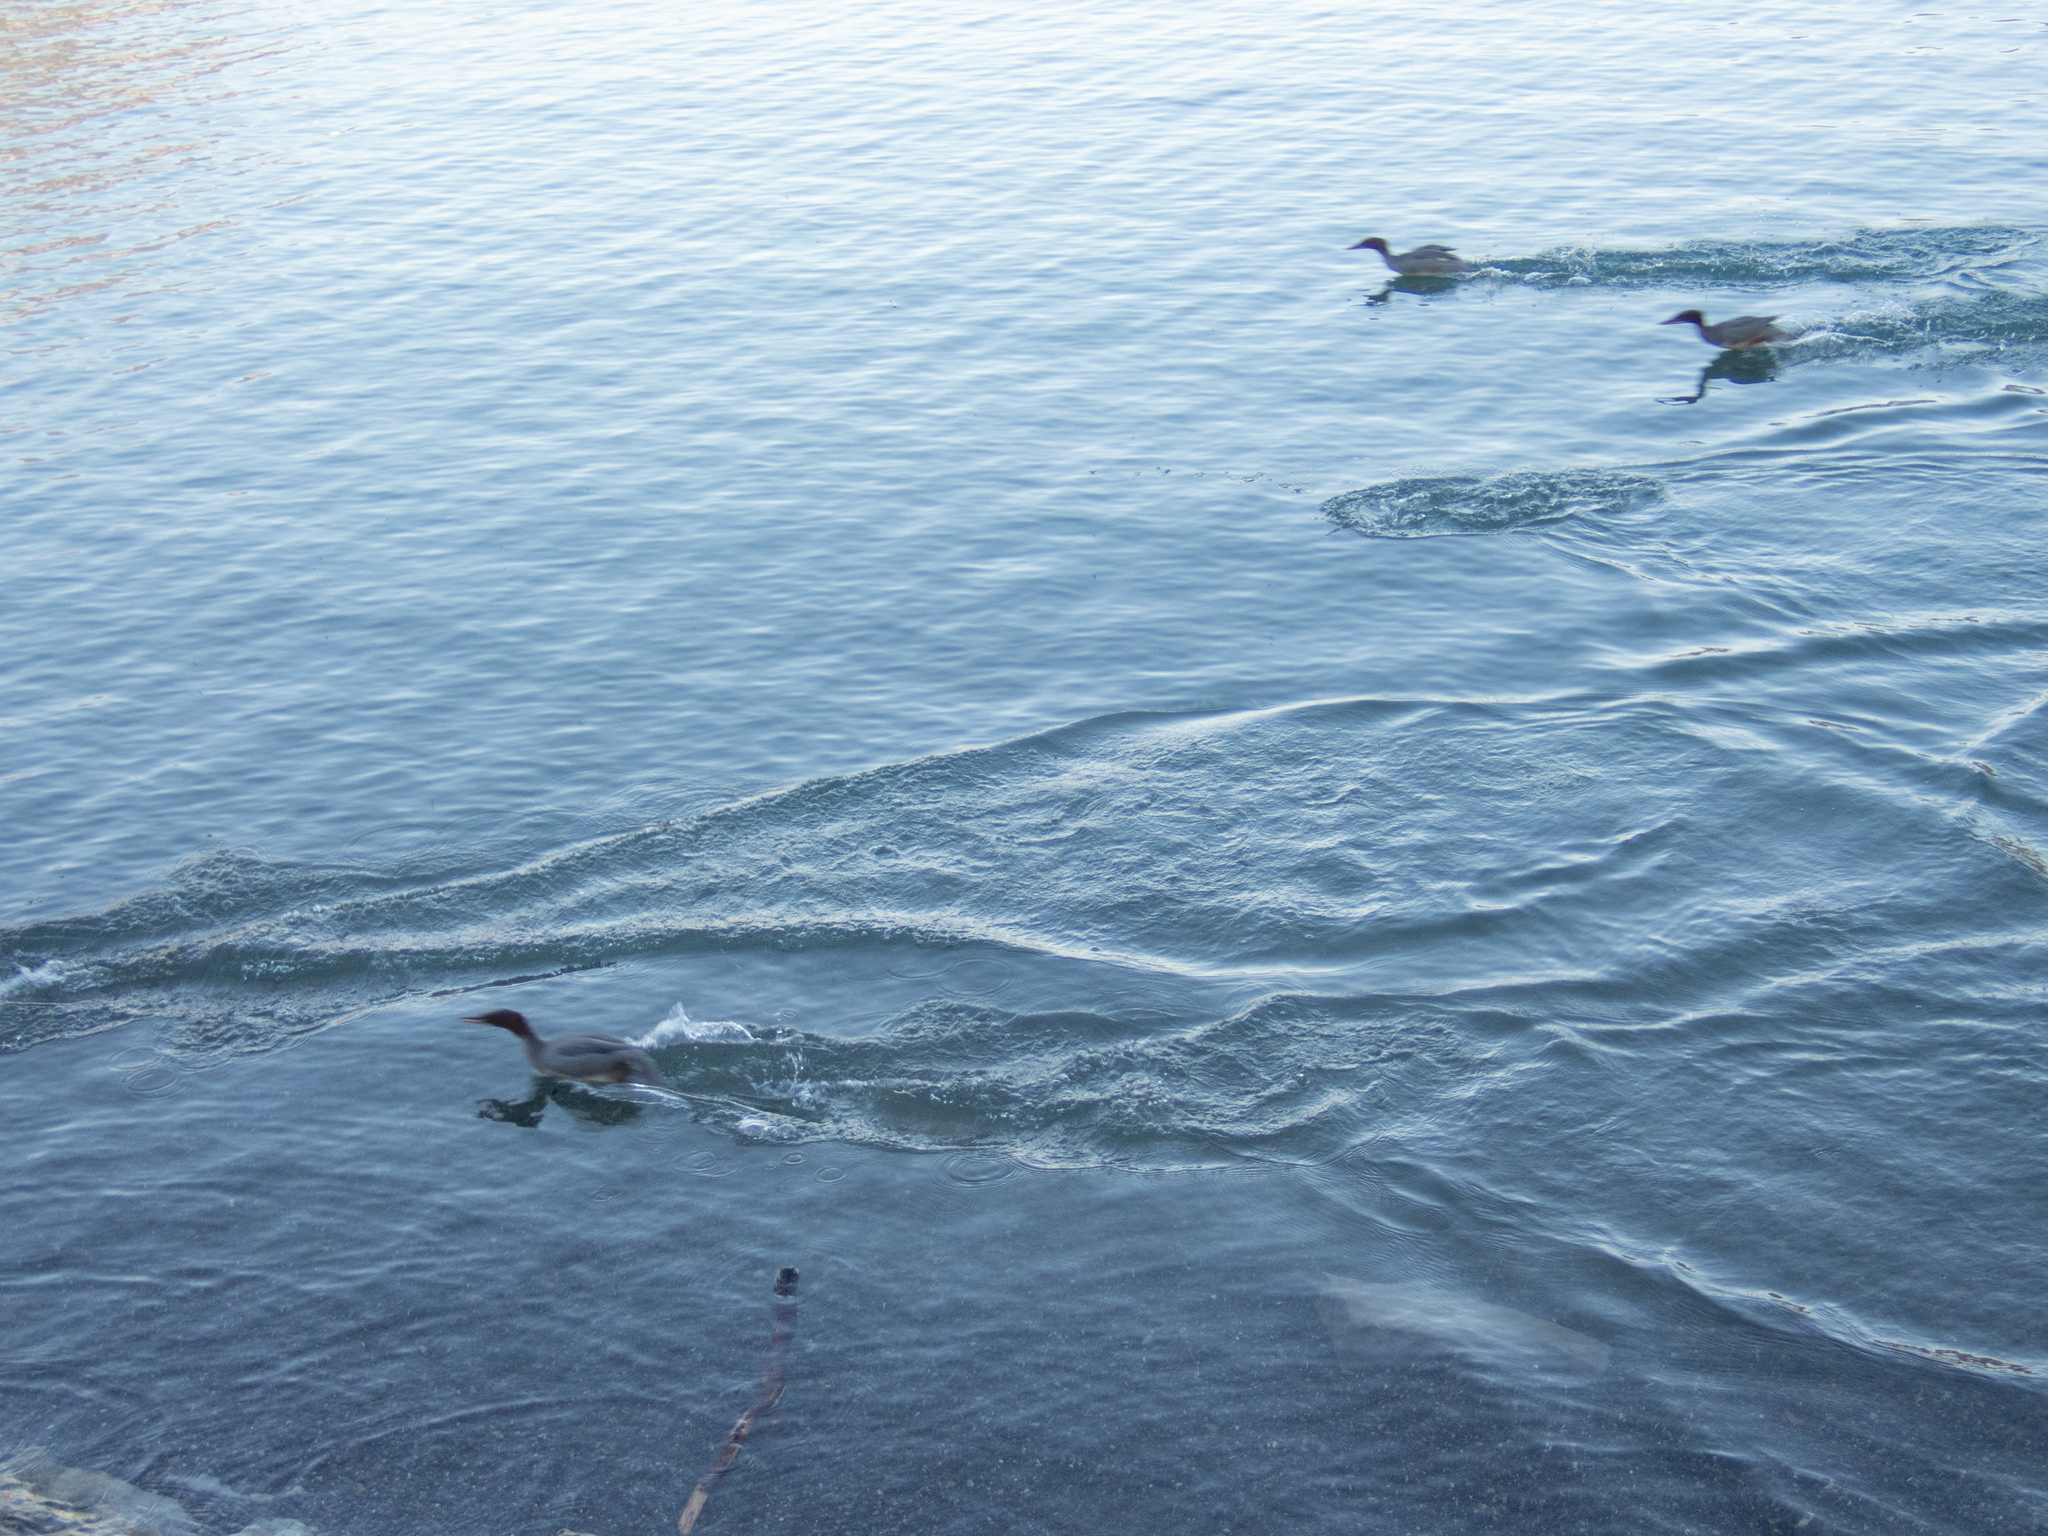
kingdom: Animalia
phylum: Chordata
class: Aves
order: Anseriformes
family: Anatidae
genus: Mergus
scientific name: Mergus merganser
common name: Common merganser
